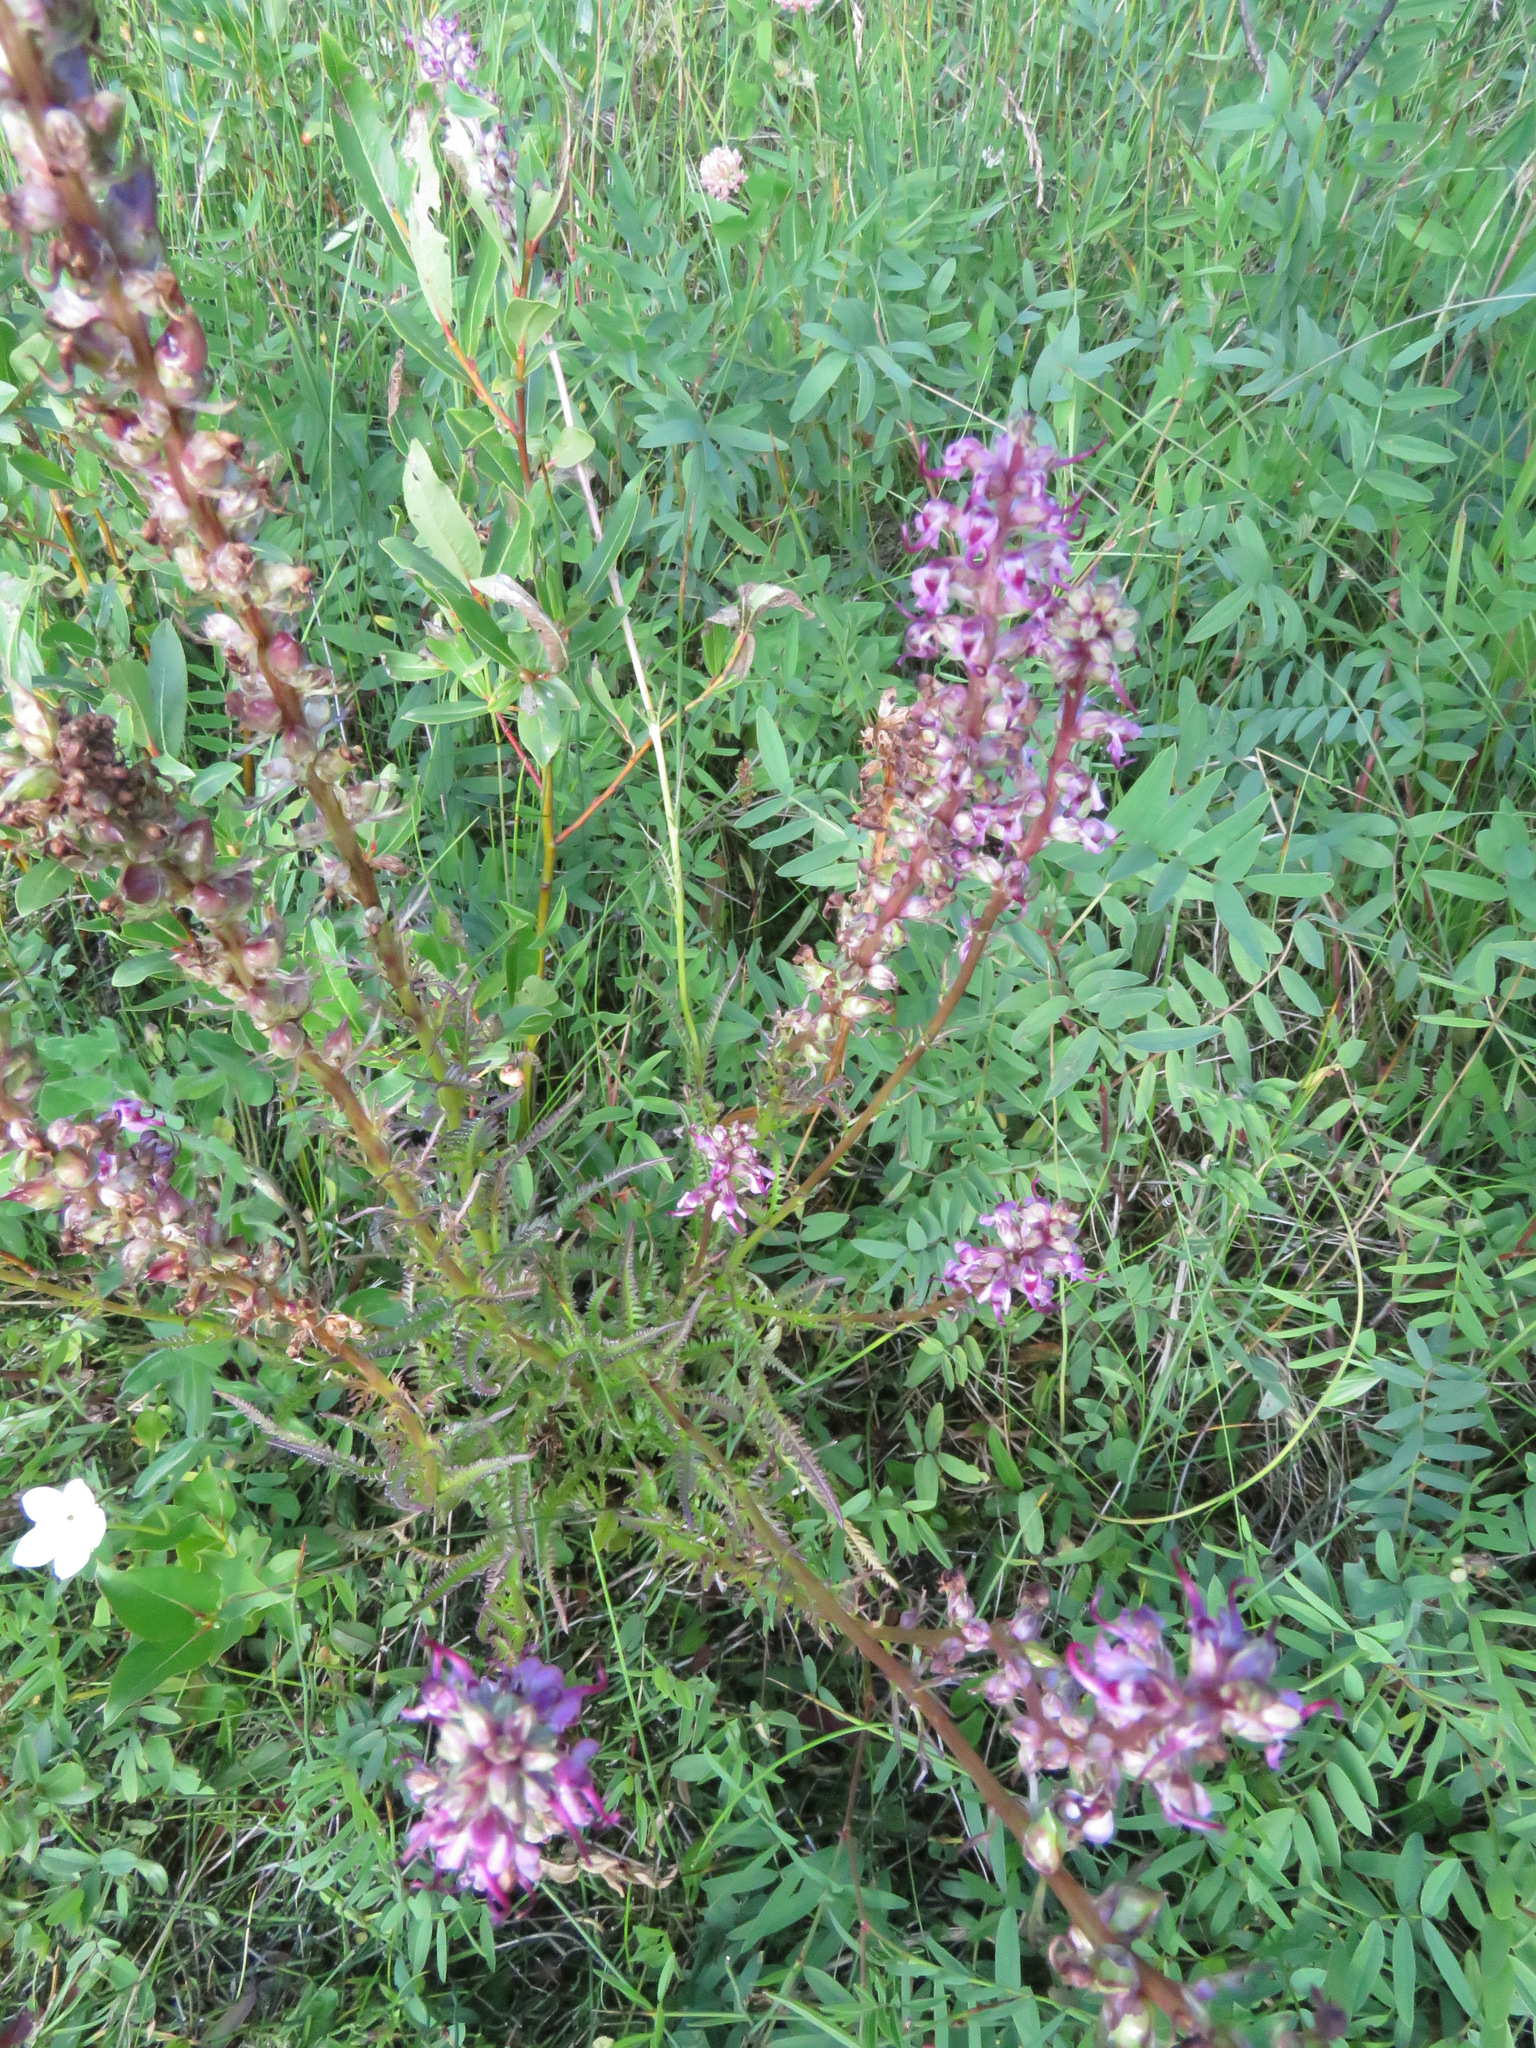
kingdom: Plantae
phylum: Tracheophyta
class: Magnoliopsida
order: Lamiales
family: Orobanchaceae
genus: Pedicularis
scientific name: Pedicularis groenlandica
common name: Elephant's-head
